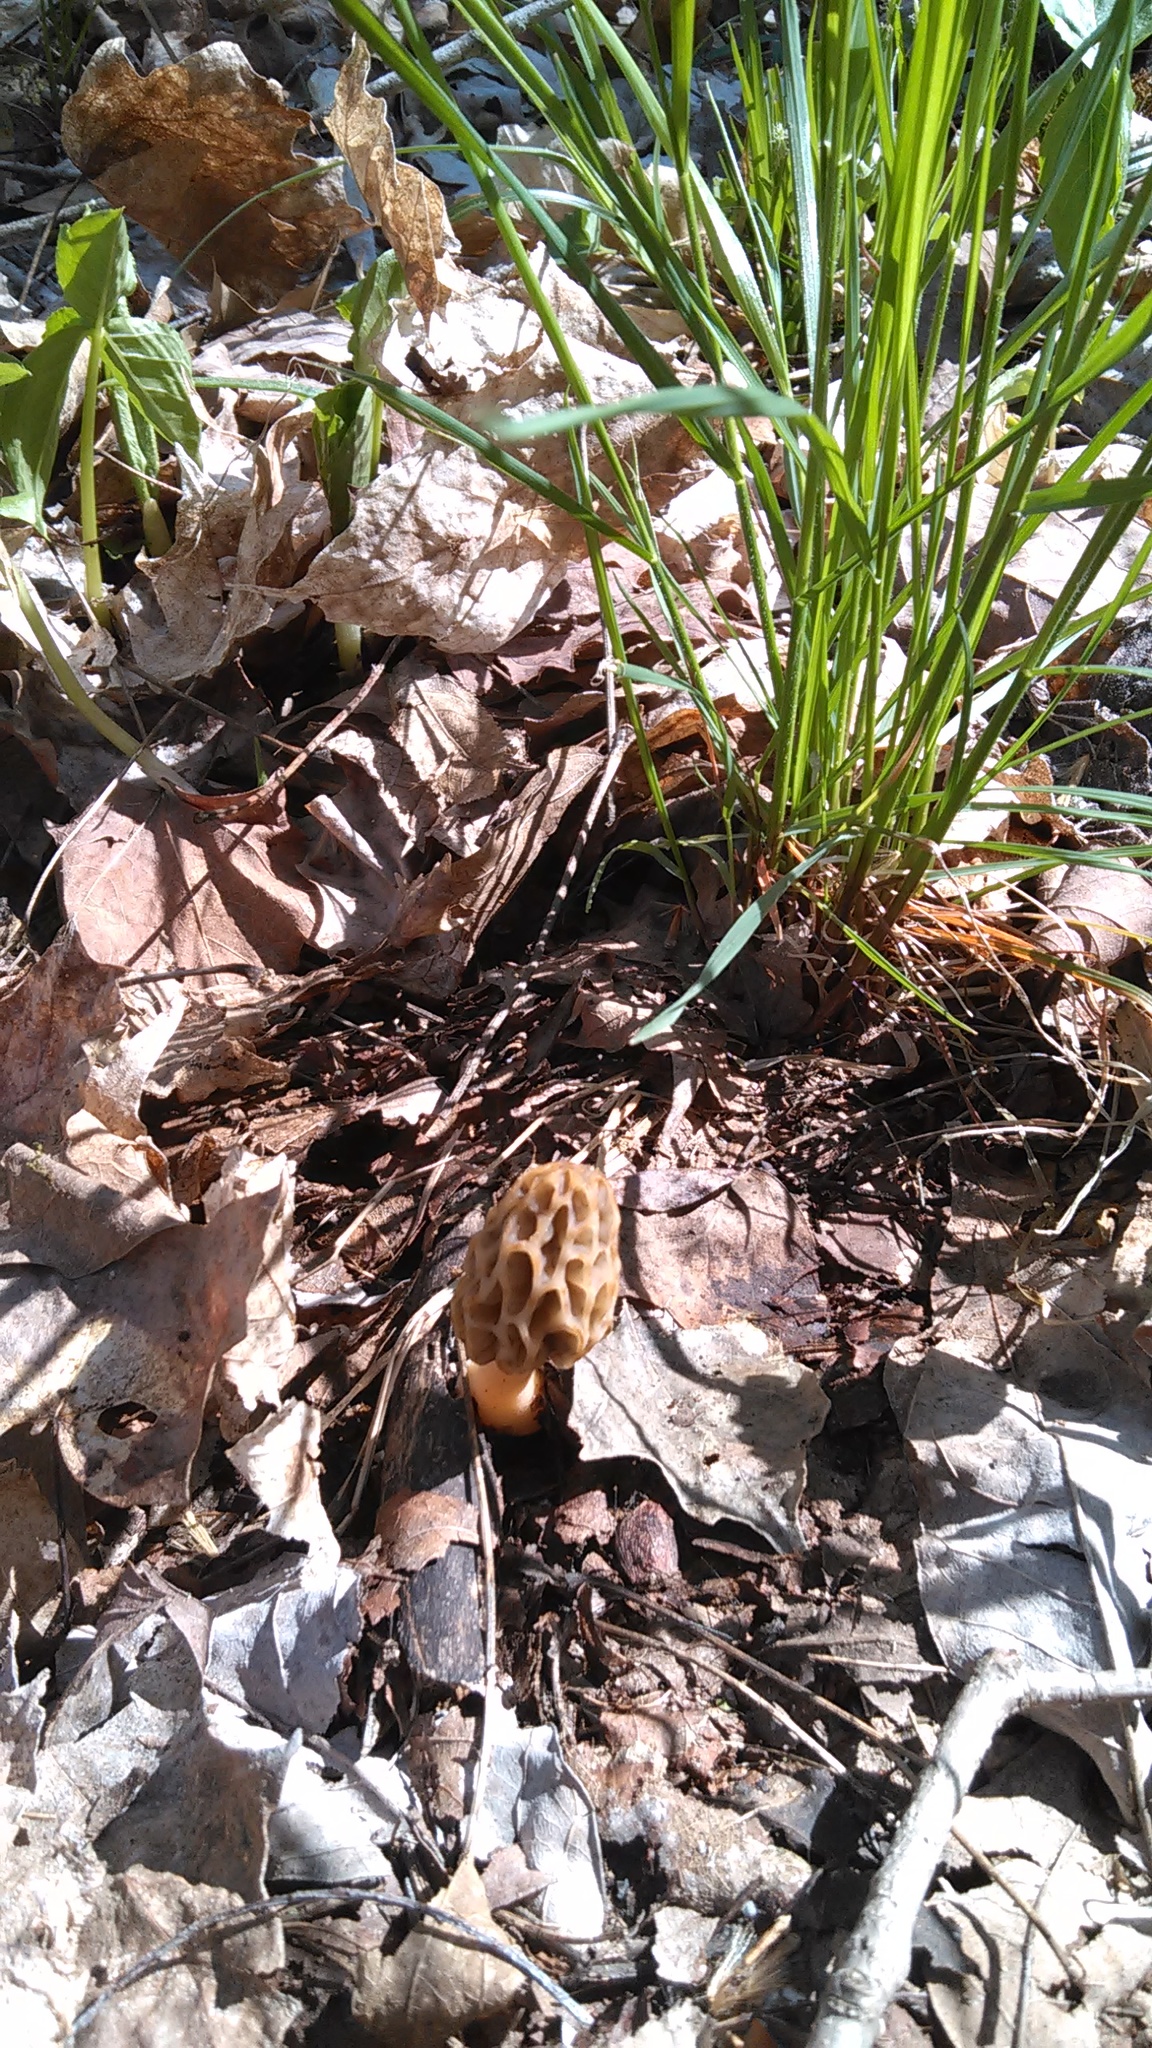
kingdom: Fungi
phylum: Ascomycota
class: Pezizomycetes
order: Pezizales
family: Morchellaceae
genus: Morchella
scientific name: Morchella diminutiva
